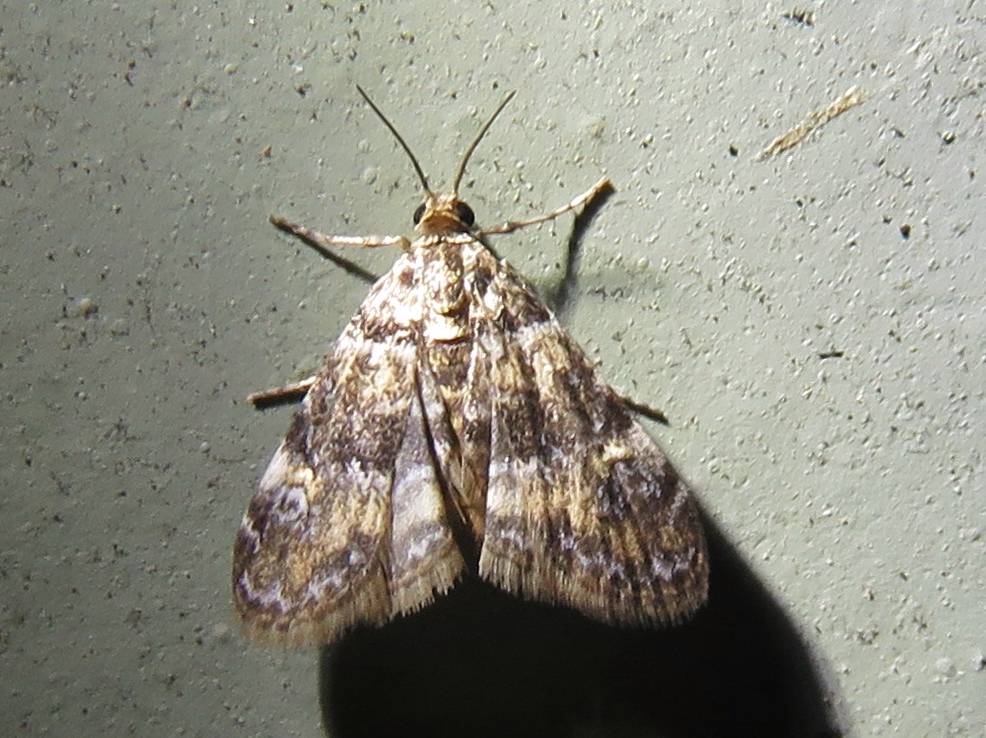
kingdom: Animalia
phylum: Arthropoda
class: Insecta
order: Lepidoptera
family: Crambidae
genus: Elophila
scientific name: Elophila obliteralis
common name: Waterlily leafcutter moth
